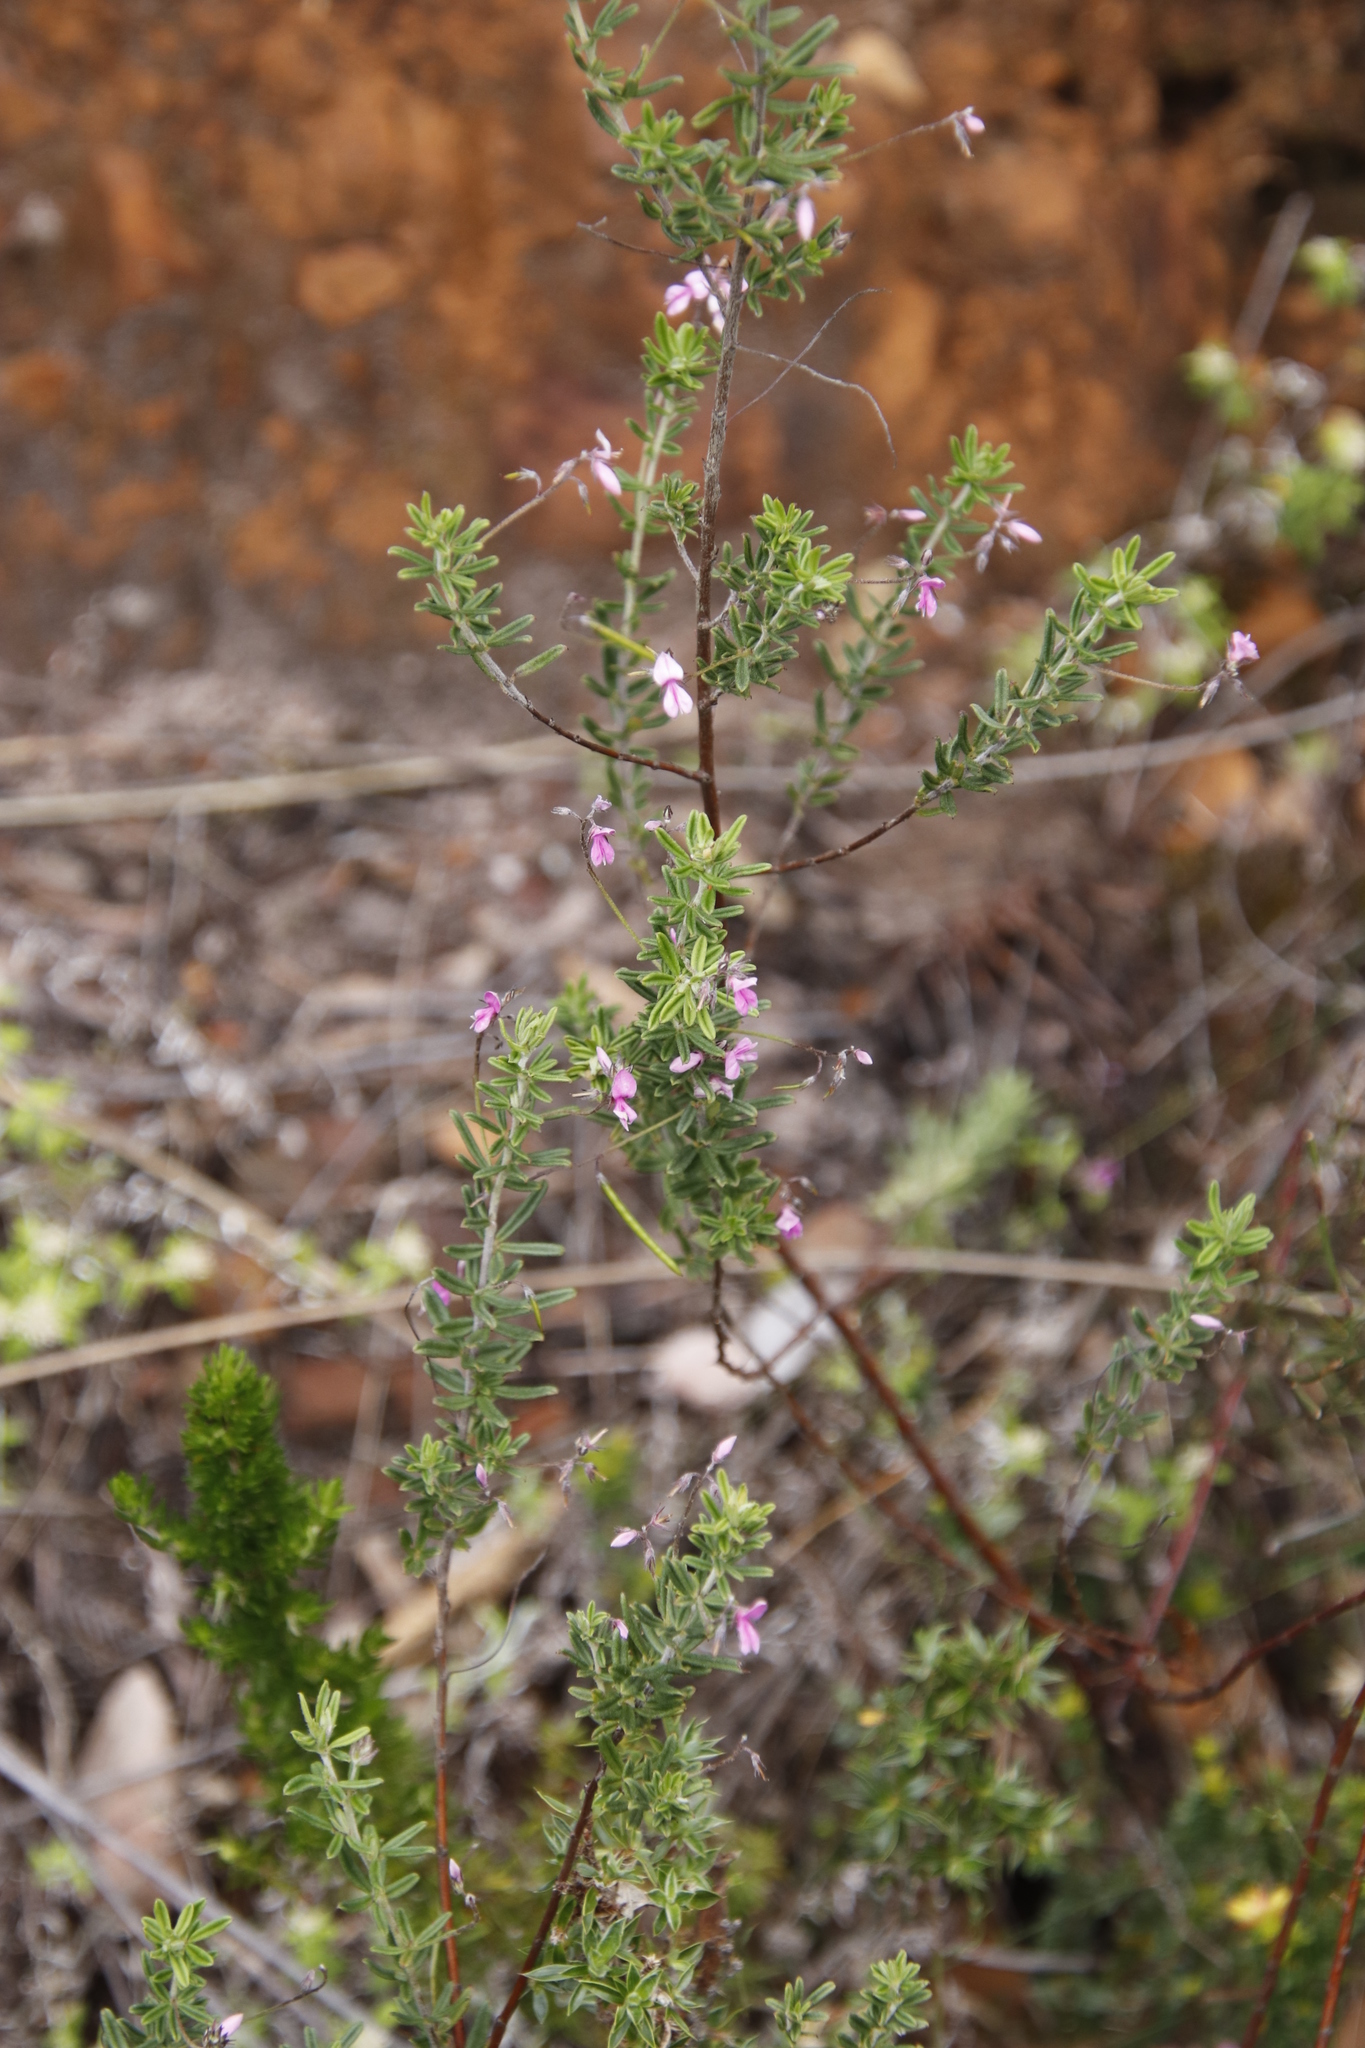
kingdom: Plantae
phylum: Tracheophyta
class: Magnoliopsida
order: Fabales
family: Fabaceae
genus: Indigofera
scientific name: Indigofera filiformis
